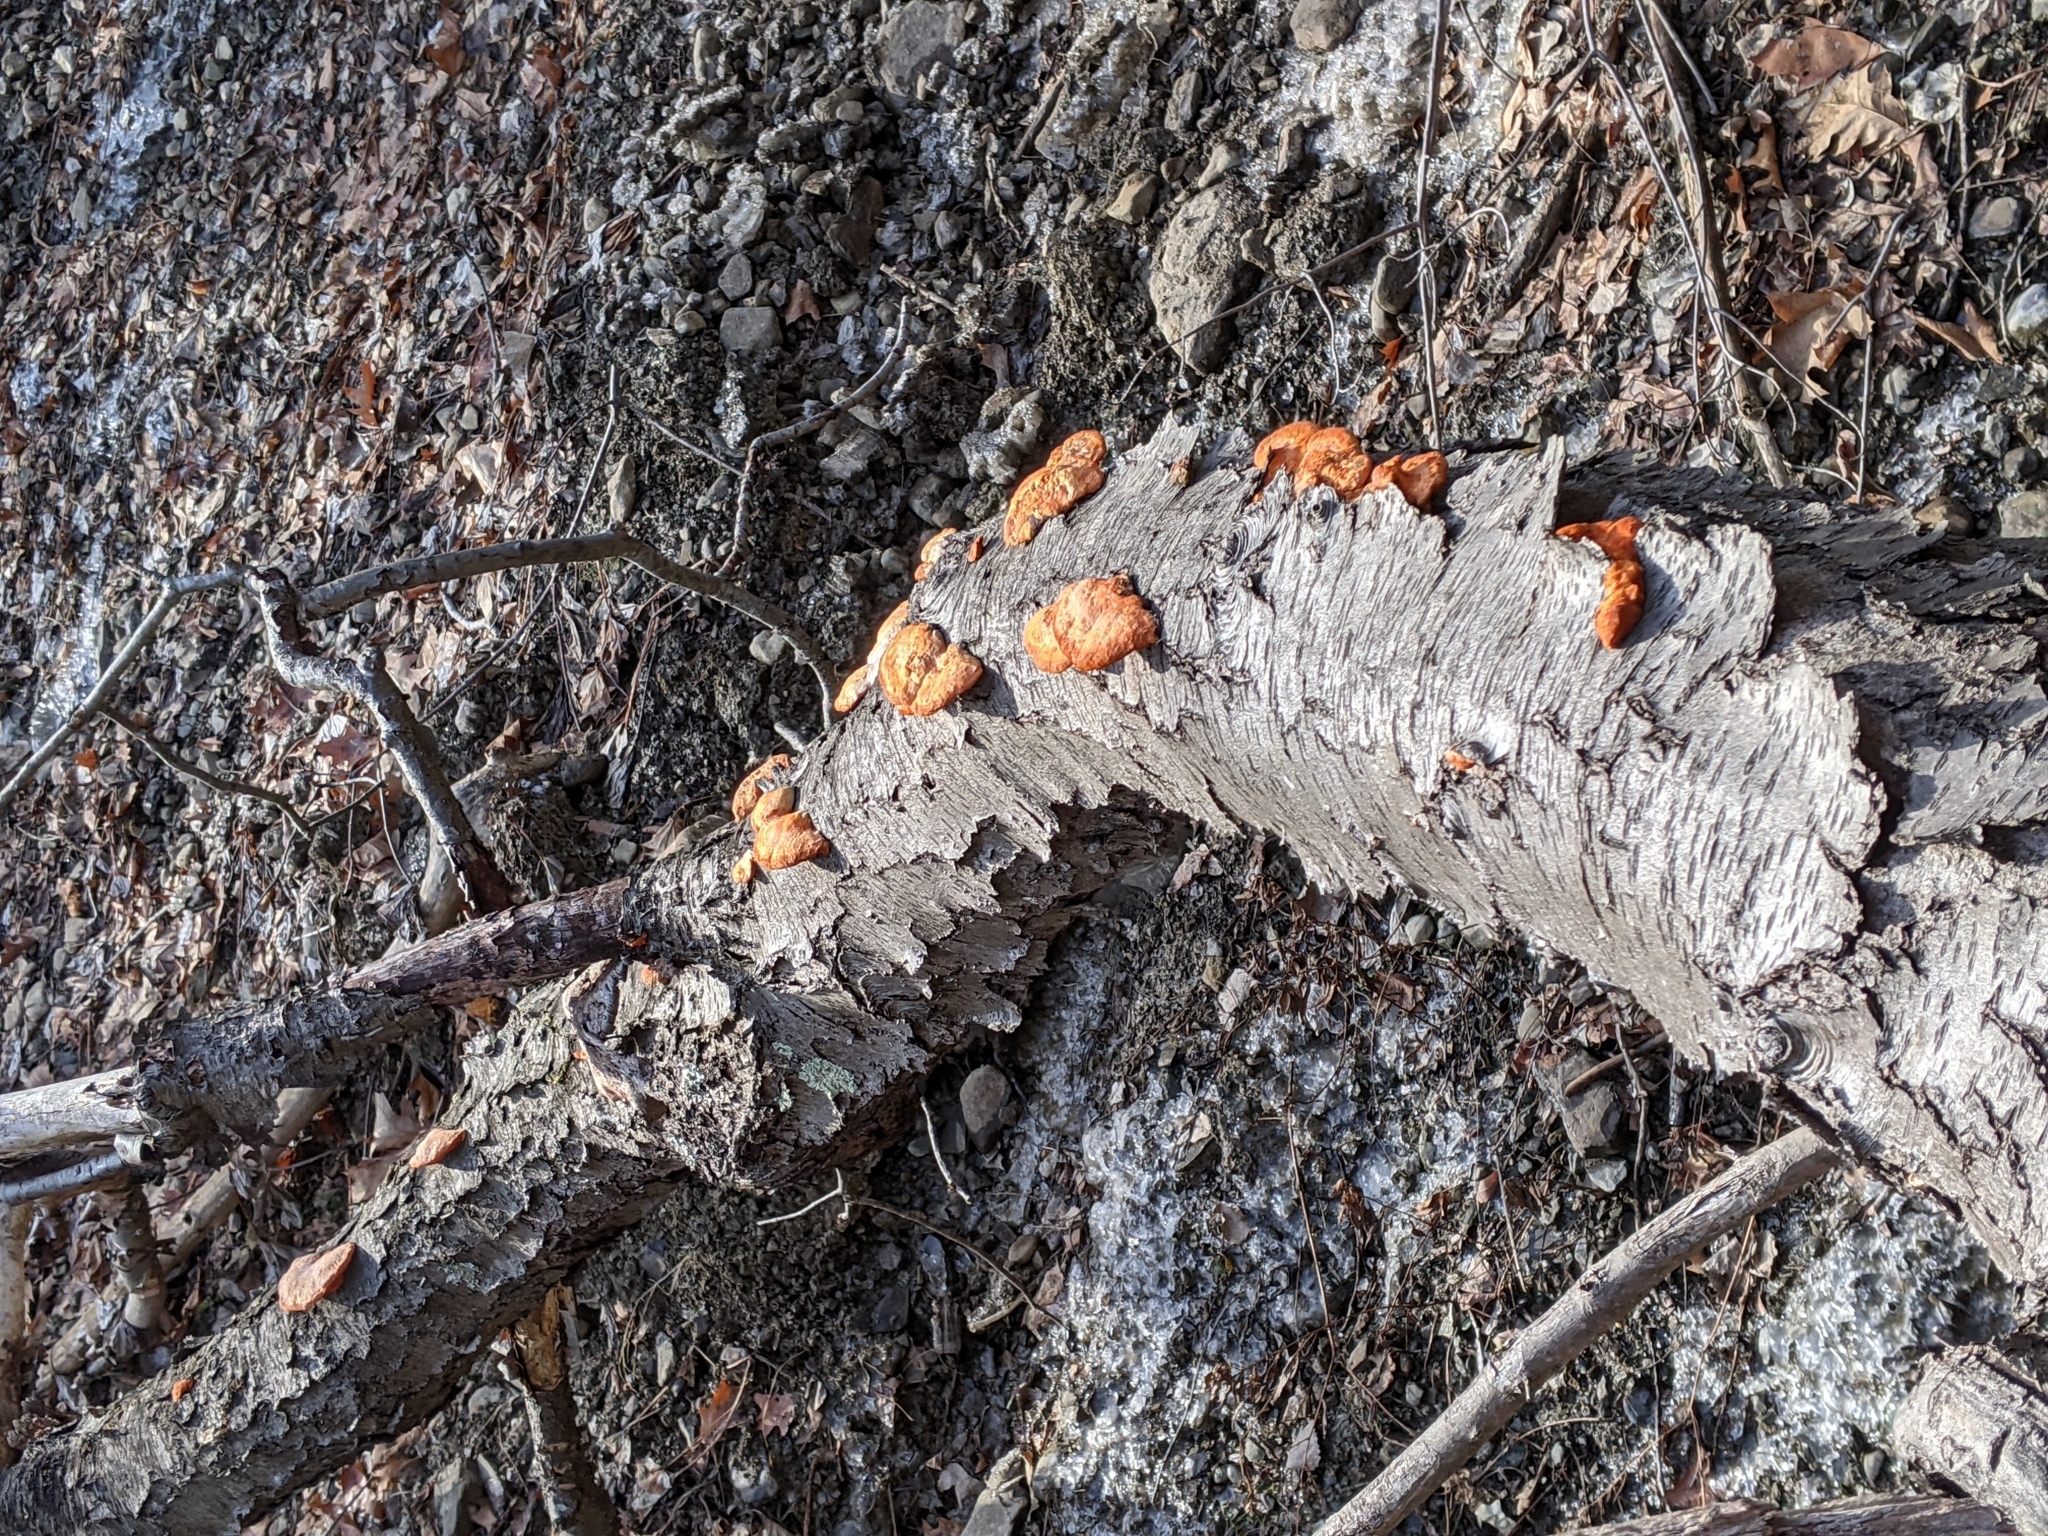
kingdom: Fungi
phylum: Basidiomycota
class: Agaricomycetes
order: Polyporales
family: Polyporaceae
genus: Trametes
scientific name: Trametes cinnabarina
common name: Northern cinnabar polypore
